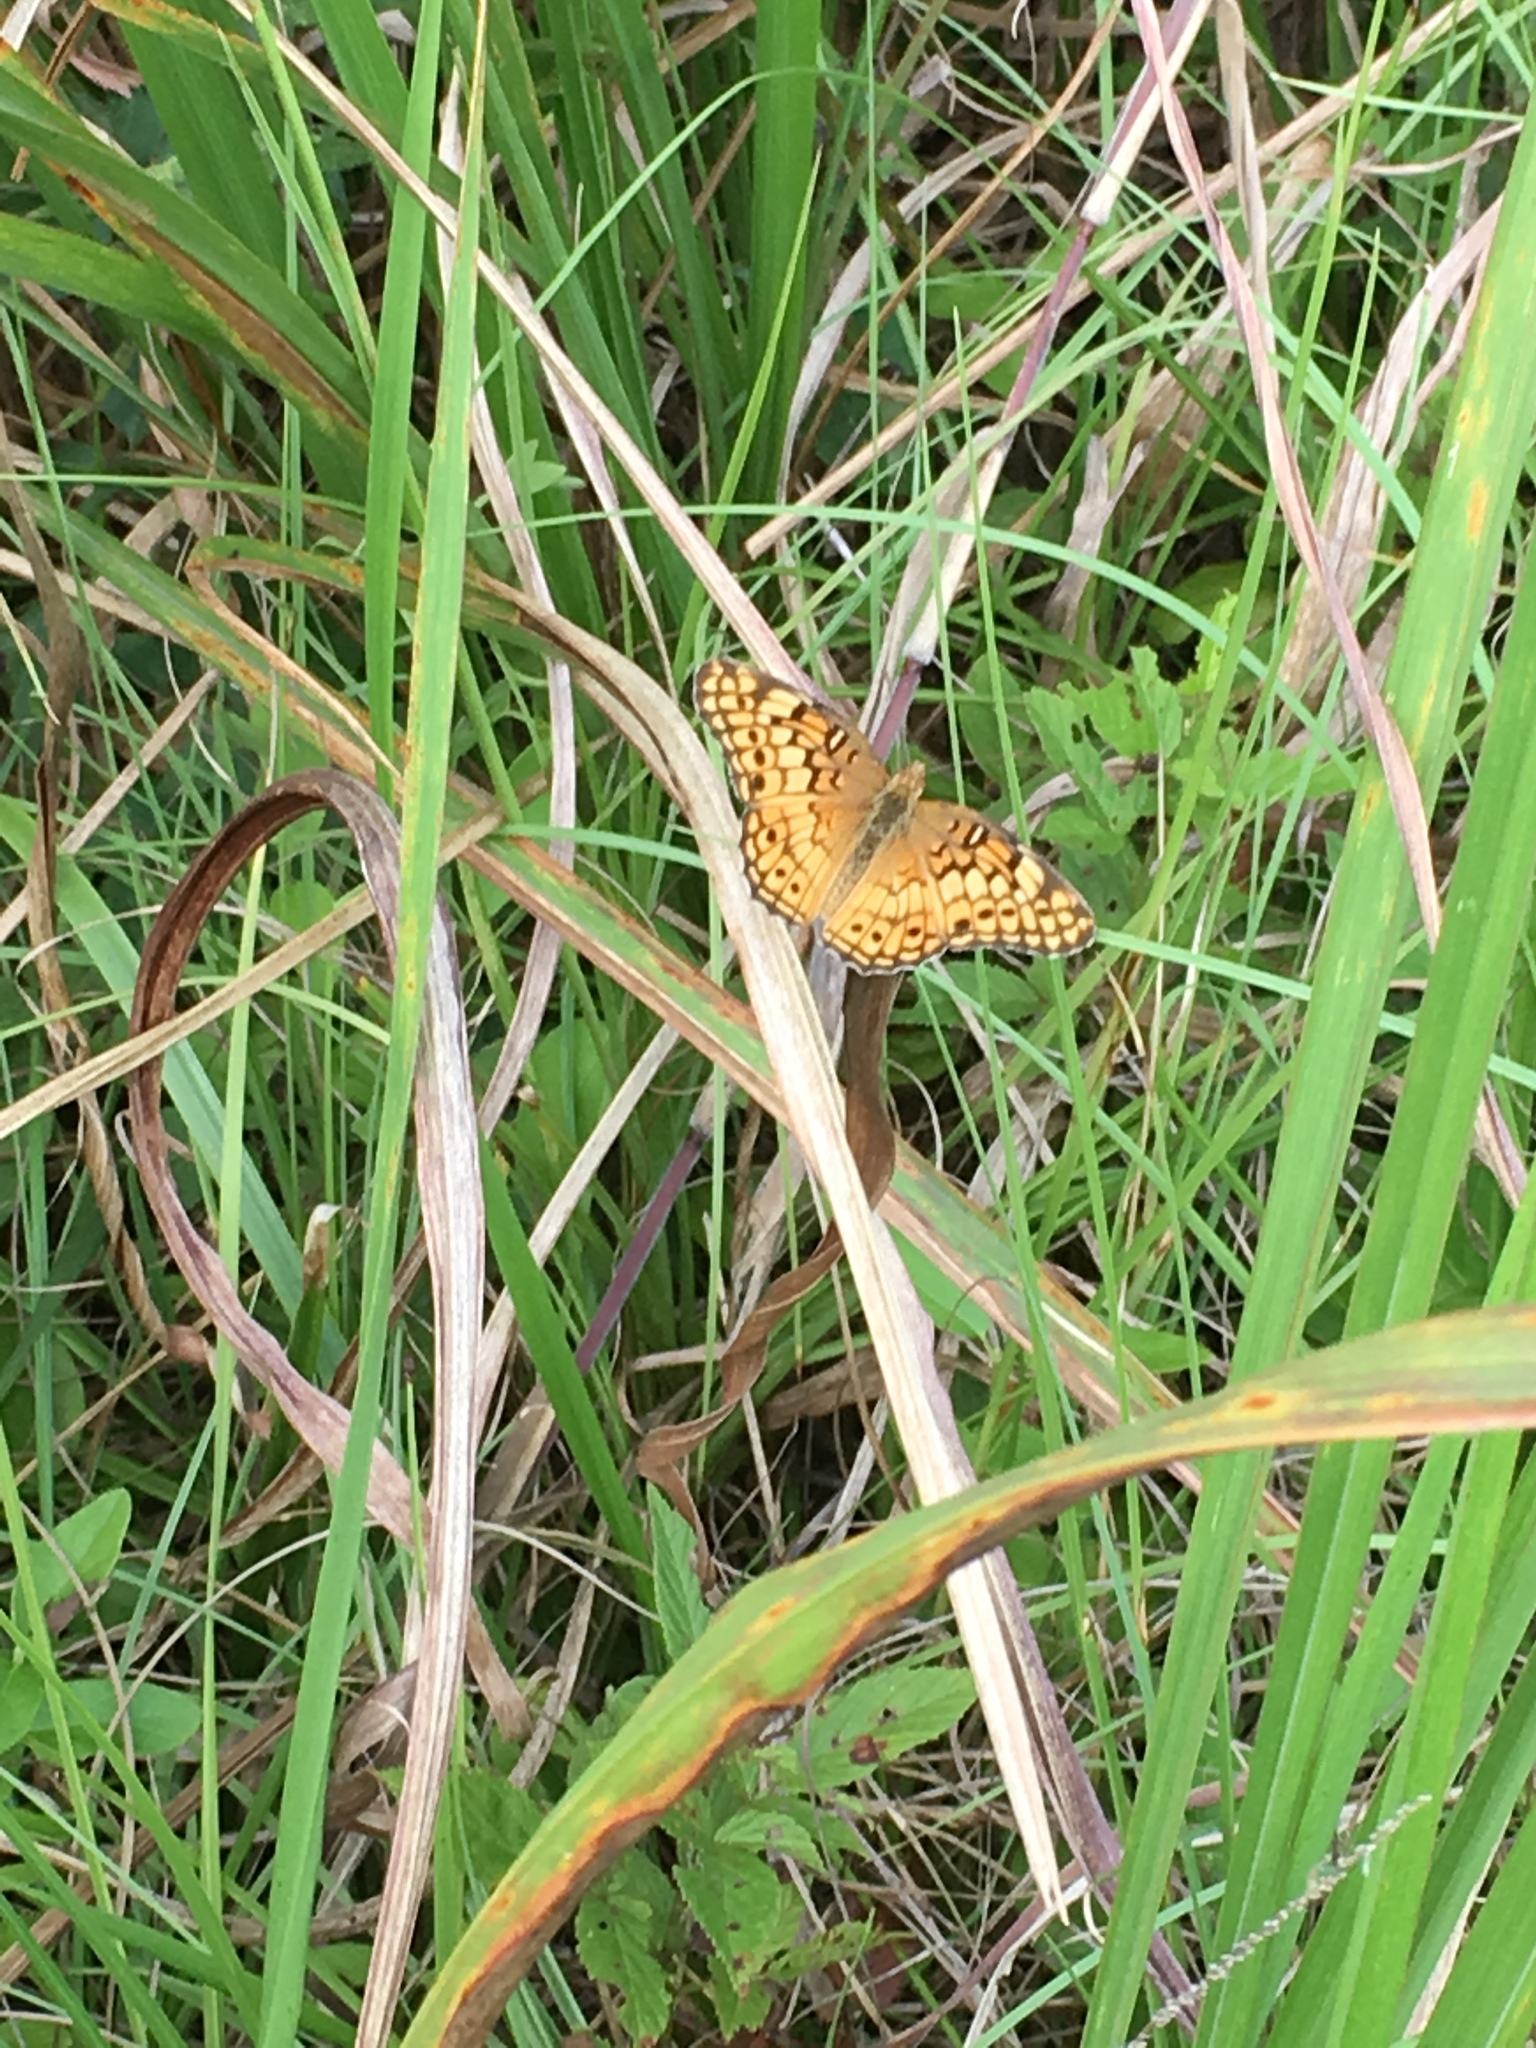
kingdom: Animalia
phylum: Arthropoda
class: Insecta
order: Lepidoptera
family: Nymphalidae
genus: Euptoieta
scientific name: Euptoieta claudia
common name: Variegated fritillary
